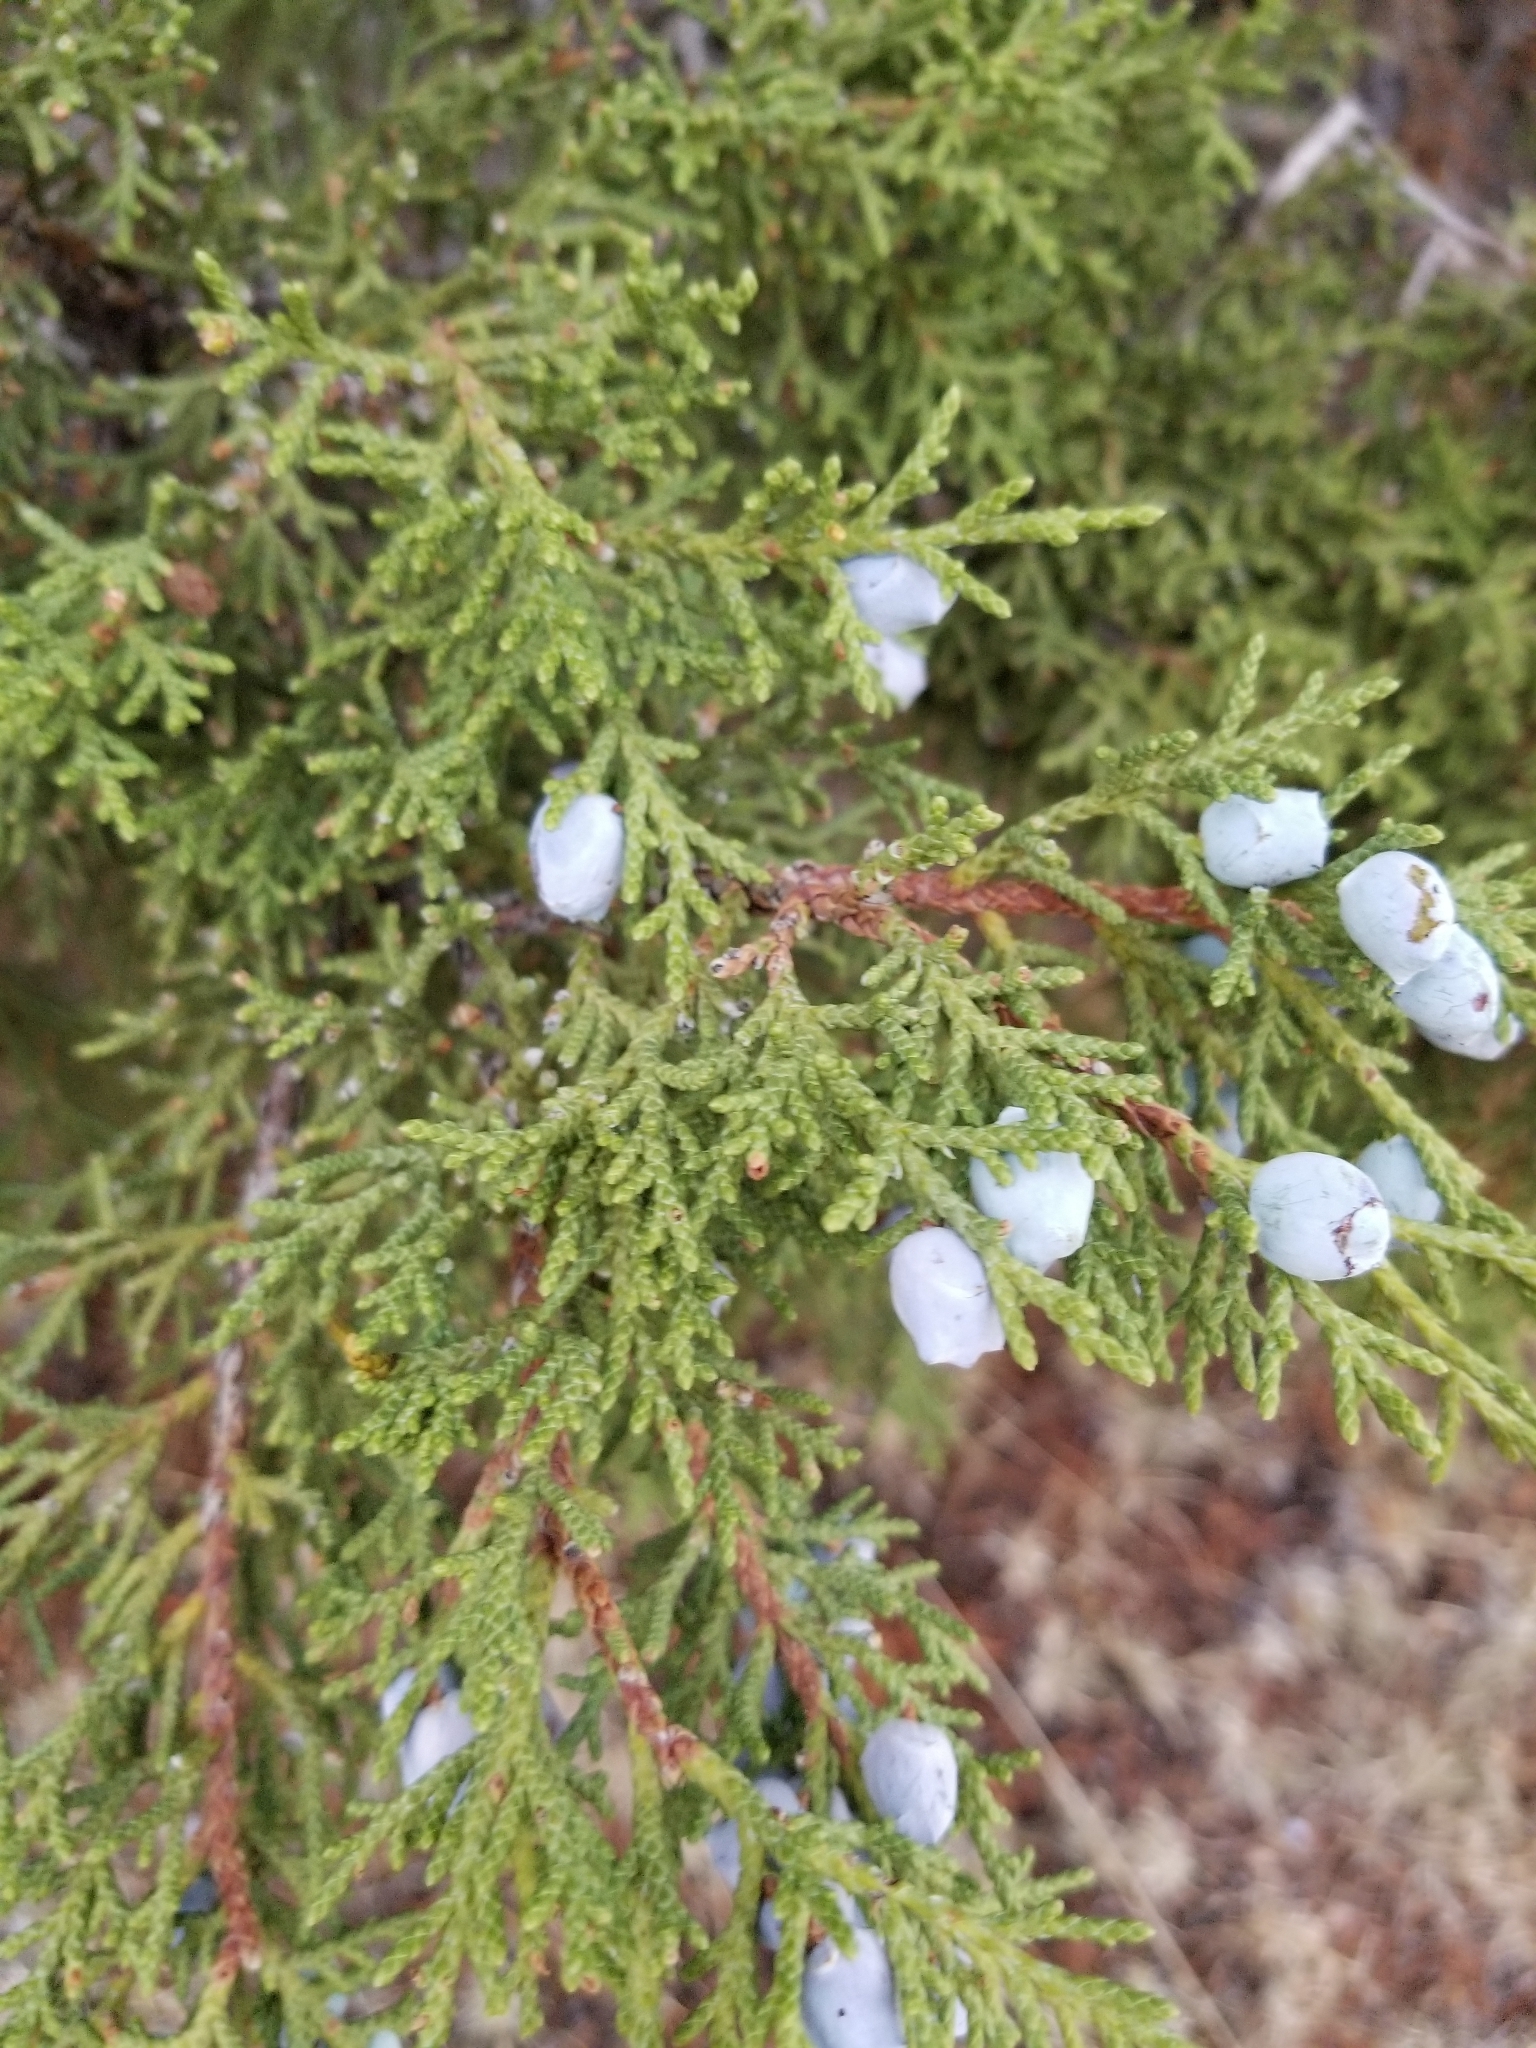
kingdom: Plantae
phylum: Tracheophyta
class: Pinopsida
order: Pinales
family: Cupressaceae
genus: Juniperus
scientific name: Juniperus osteosperma
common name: Utah juniper
